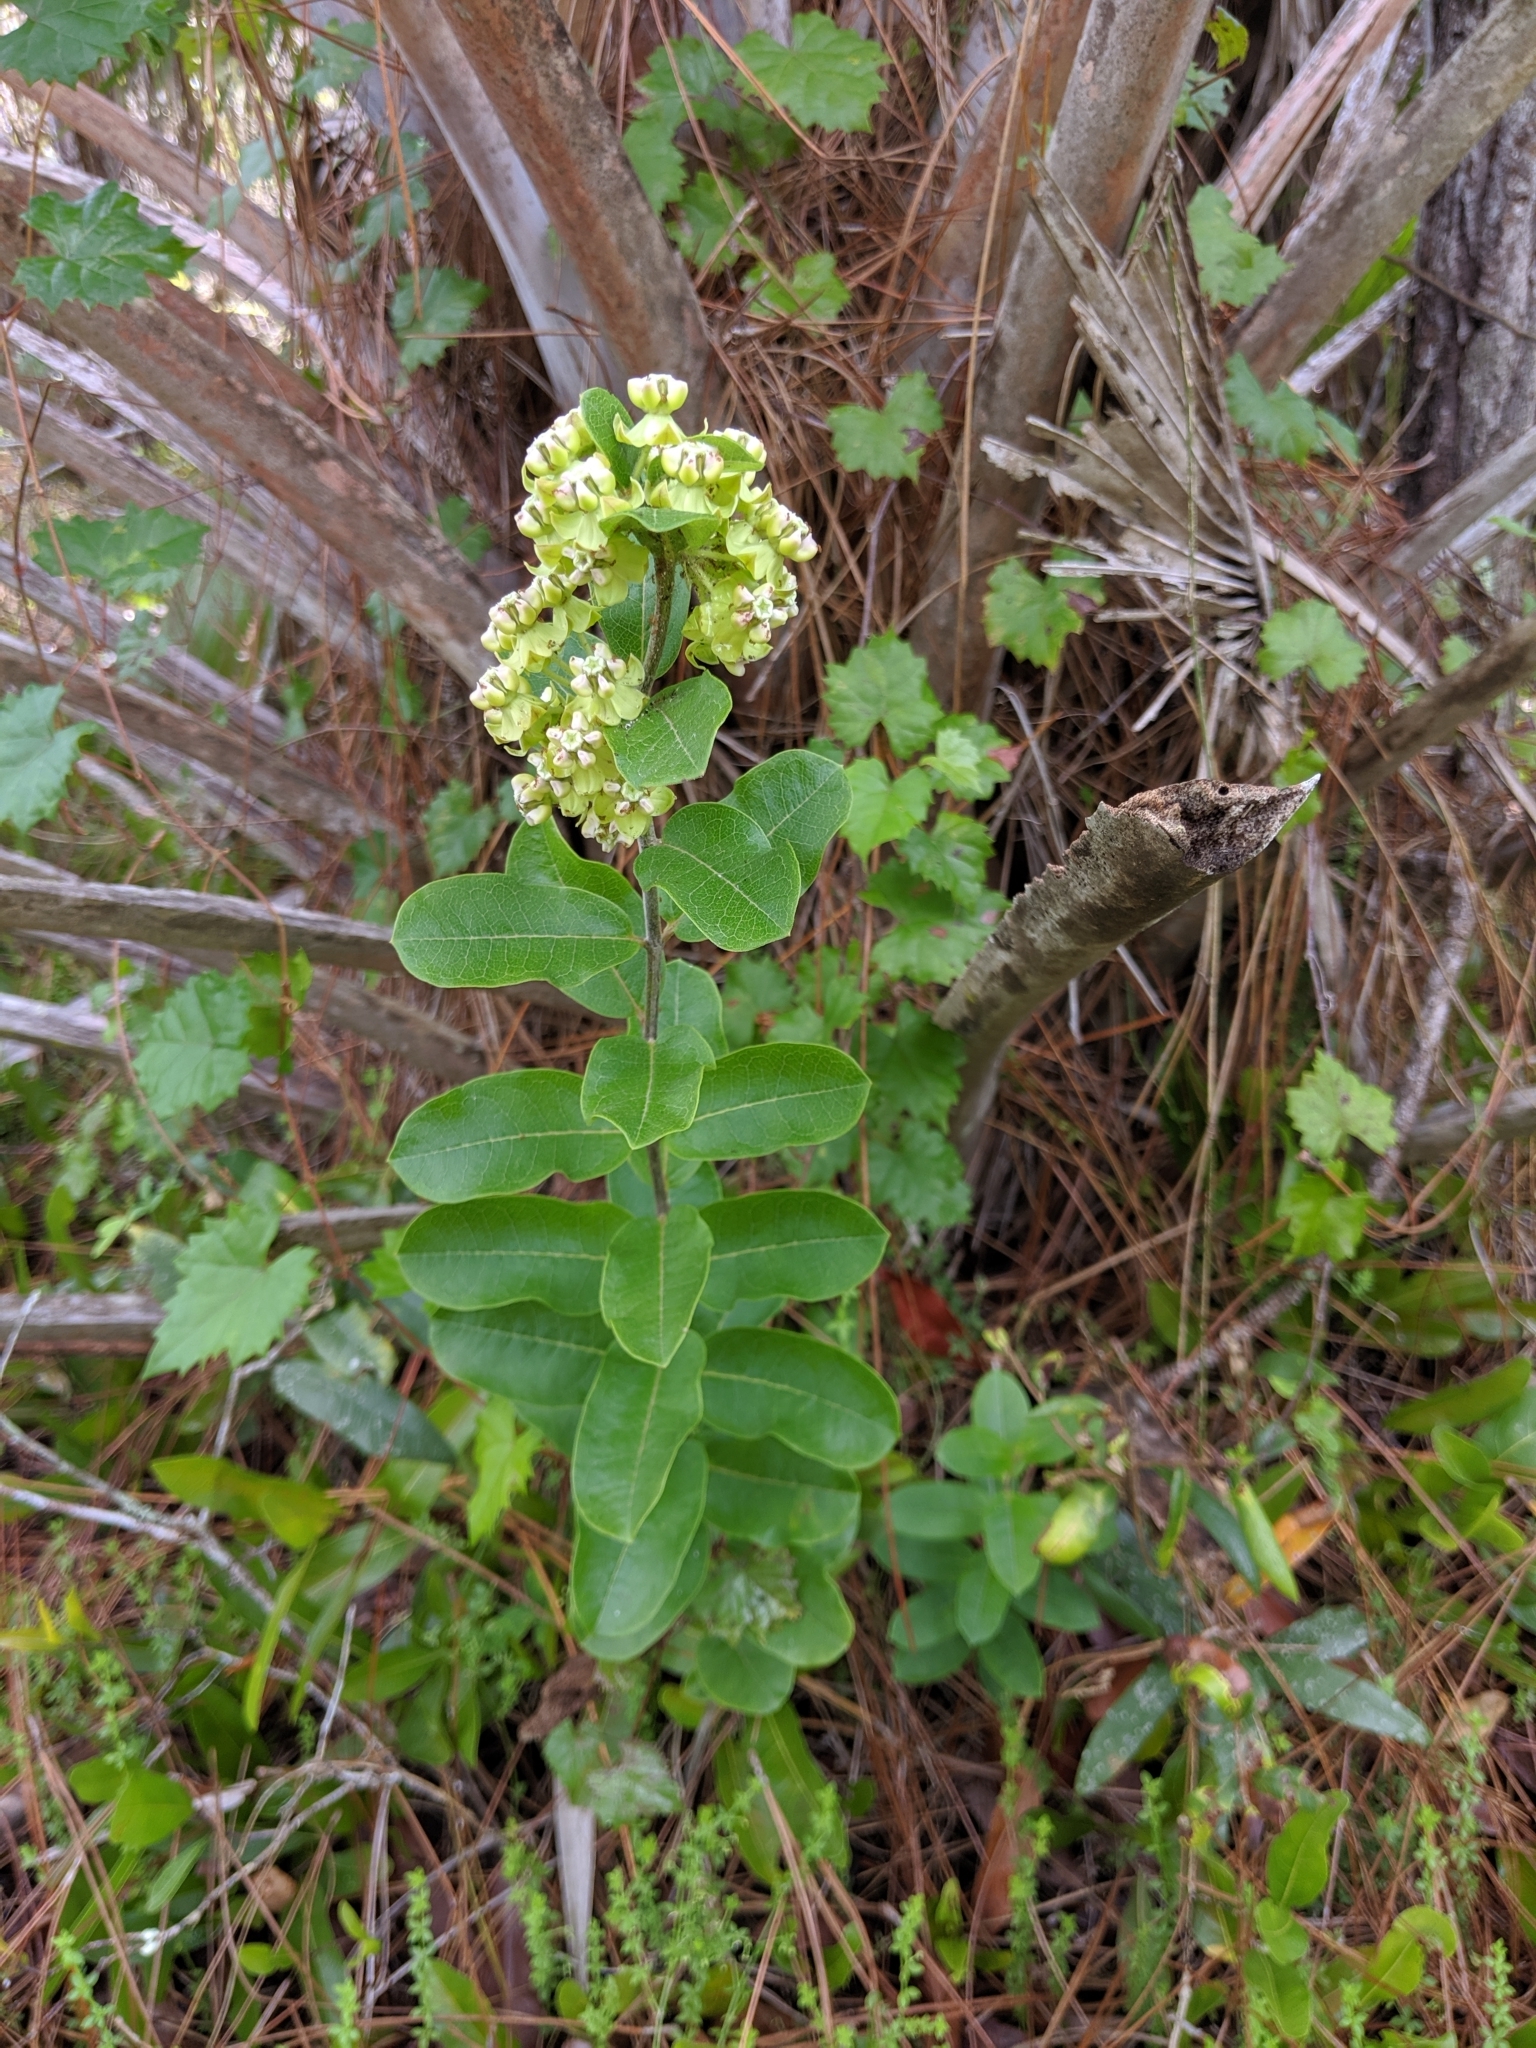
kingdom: Plantae
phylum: Tracheophyta
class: Magnoliopsida
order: Gentianales
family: Apocynaceae
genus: Asclepias
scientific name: Asclepias tomentosa
